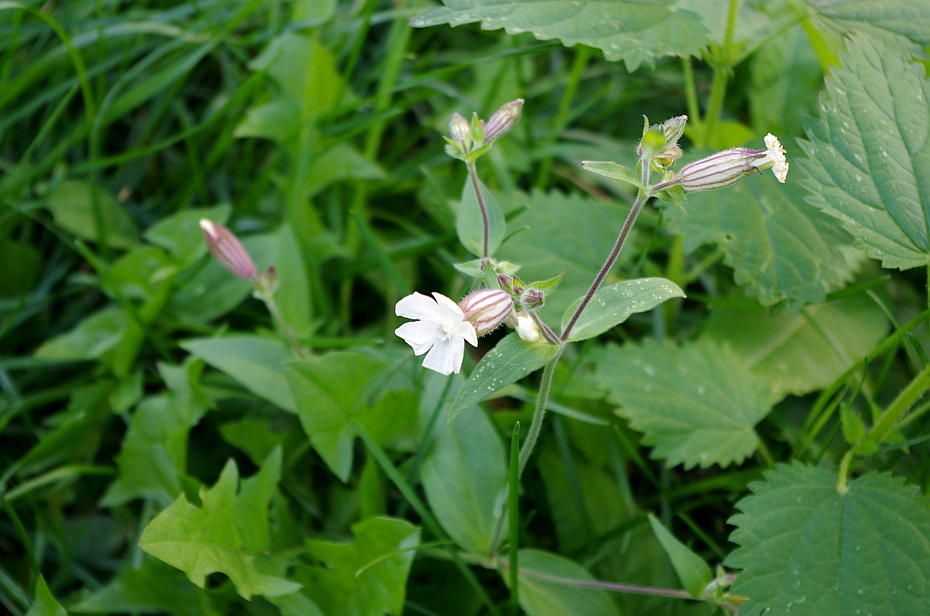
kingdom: Plantae
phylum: Tracheophyta
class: Magnoliopsida
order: Caryophyllales
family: Caryophyllaceae
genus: Silene
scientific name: Silene latifolia
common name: White campion
